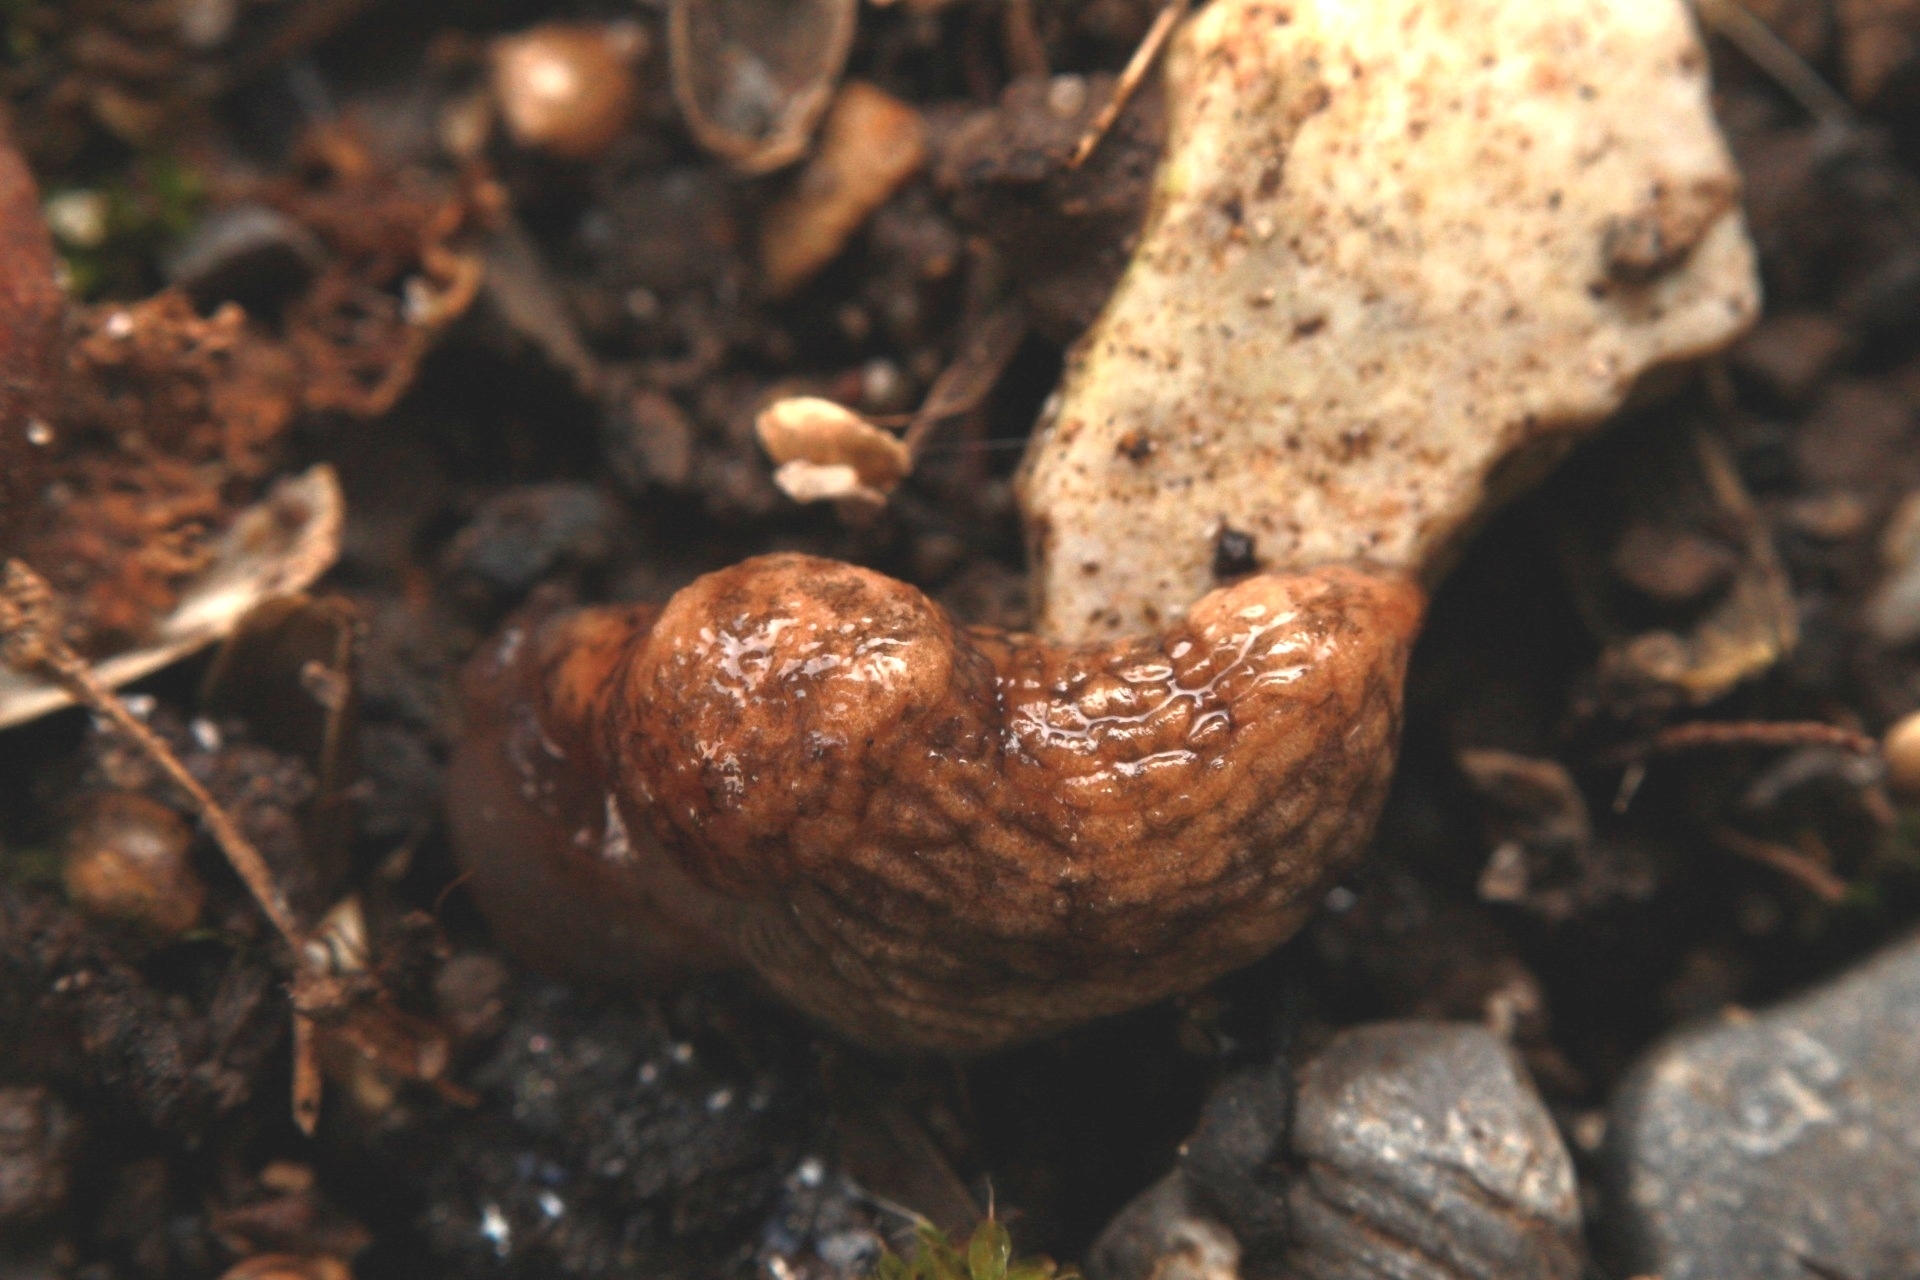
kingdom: Animalia
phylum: Mollusca
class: Gastropoda
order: Stylommatophora
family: Agriolimacidae
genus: Deroceras
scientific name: Deroceras reticulatum
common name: Gray field slug
